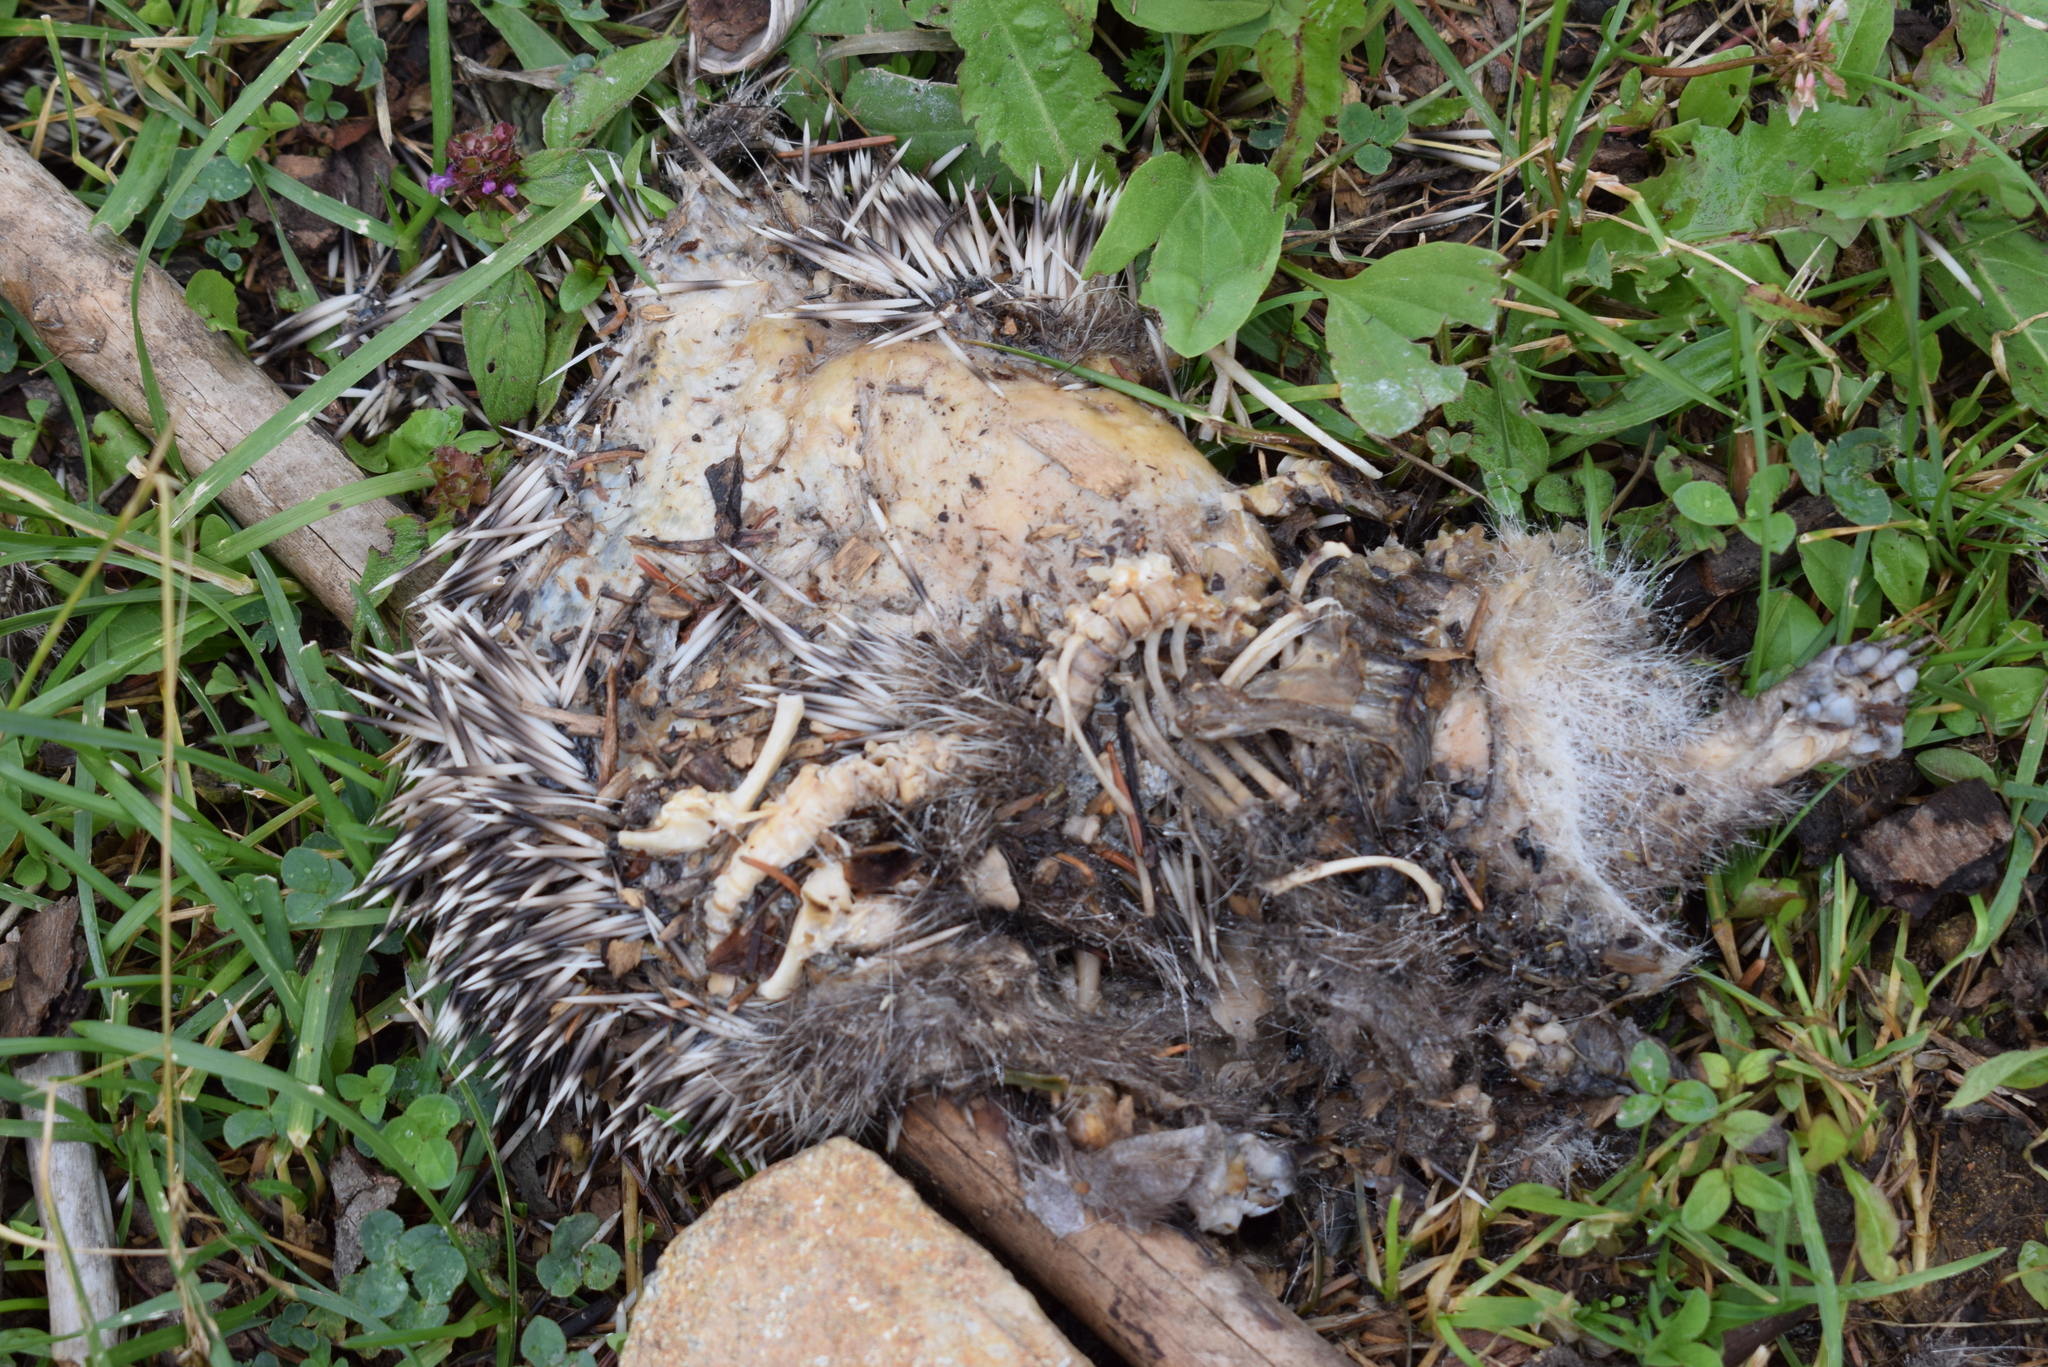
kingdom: Animalia
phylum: Chordata
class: Mammalia
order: Erinaceomorpha
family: Erinaceidae
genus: Erinaceus
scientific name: Erinaceus roumanicus
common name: Northern white-breasted hedgehog
